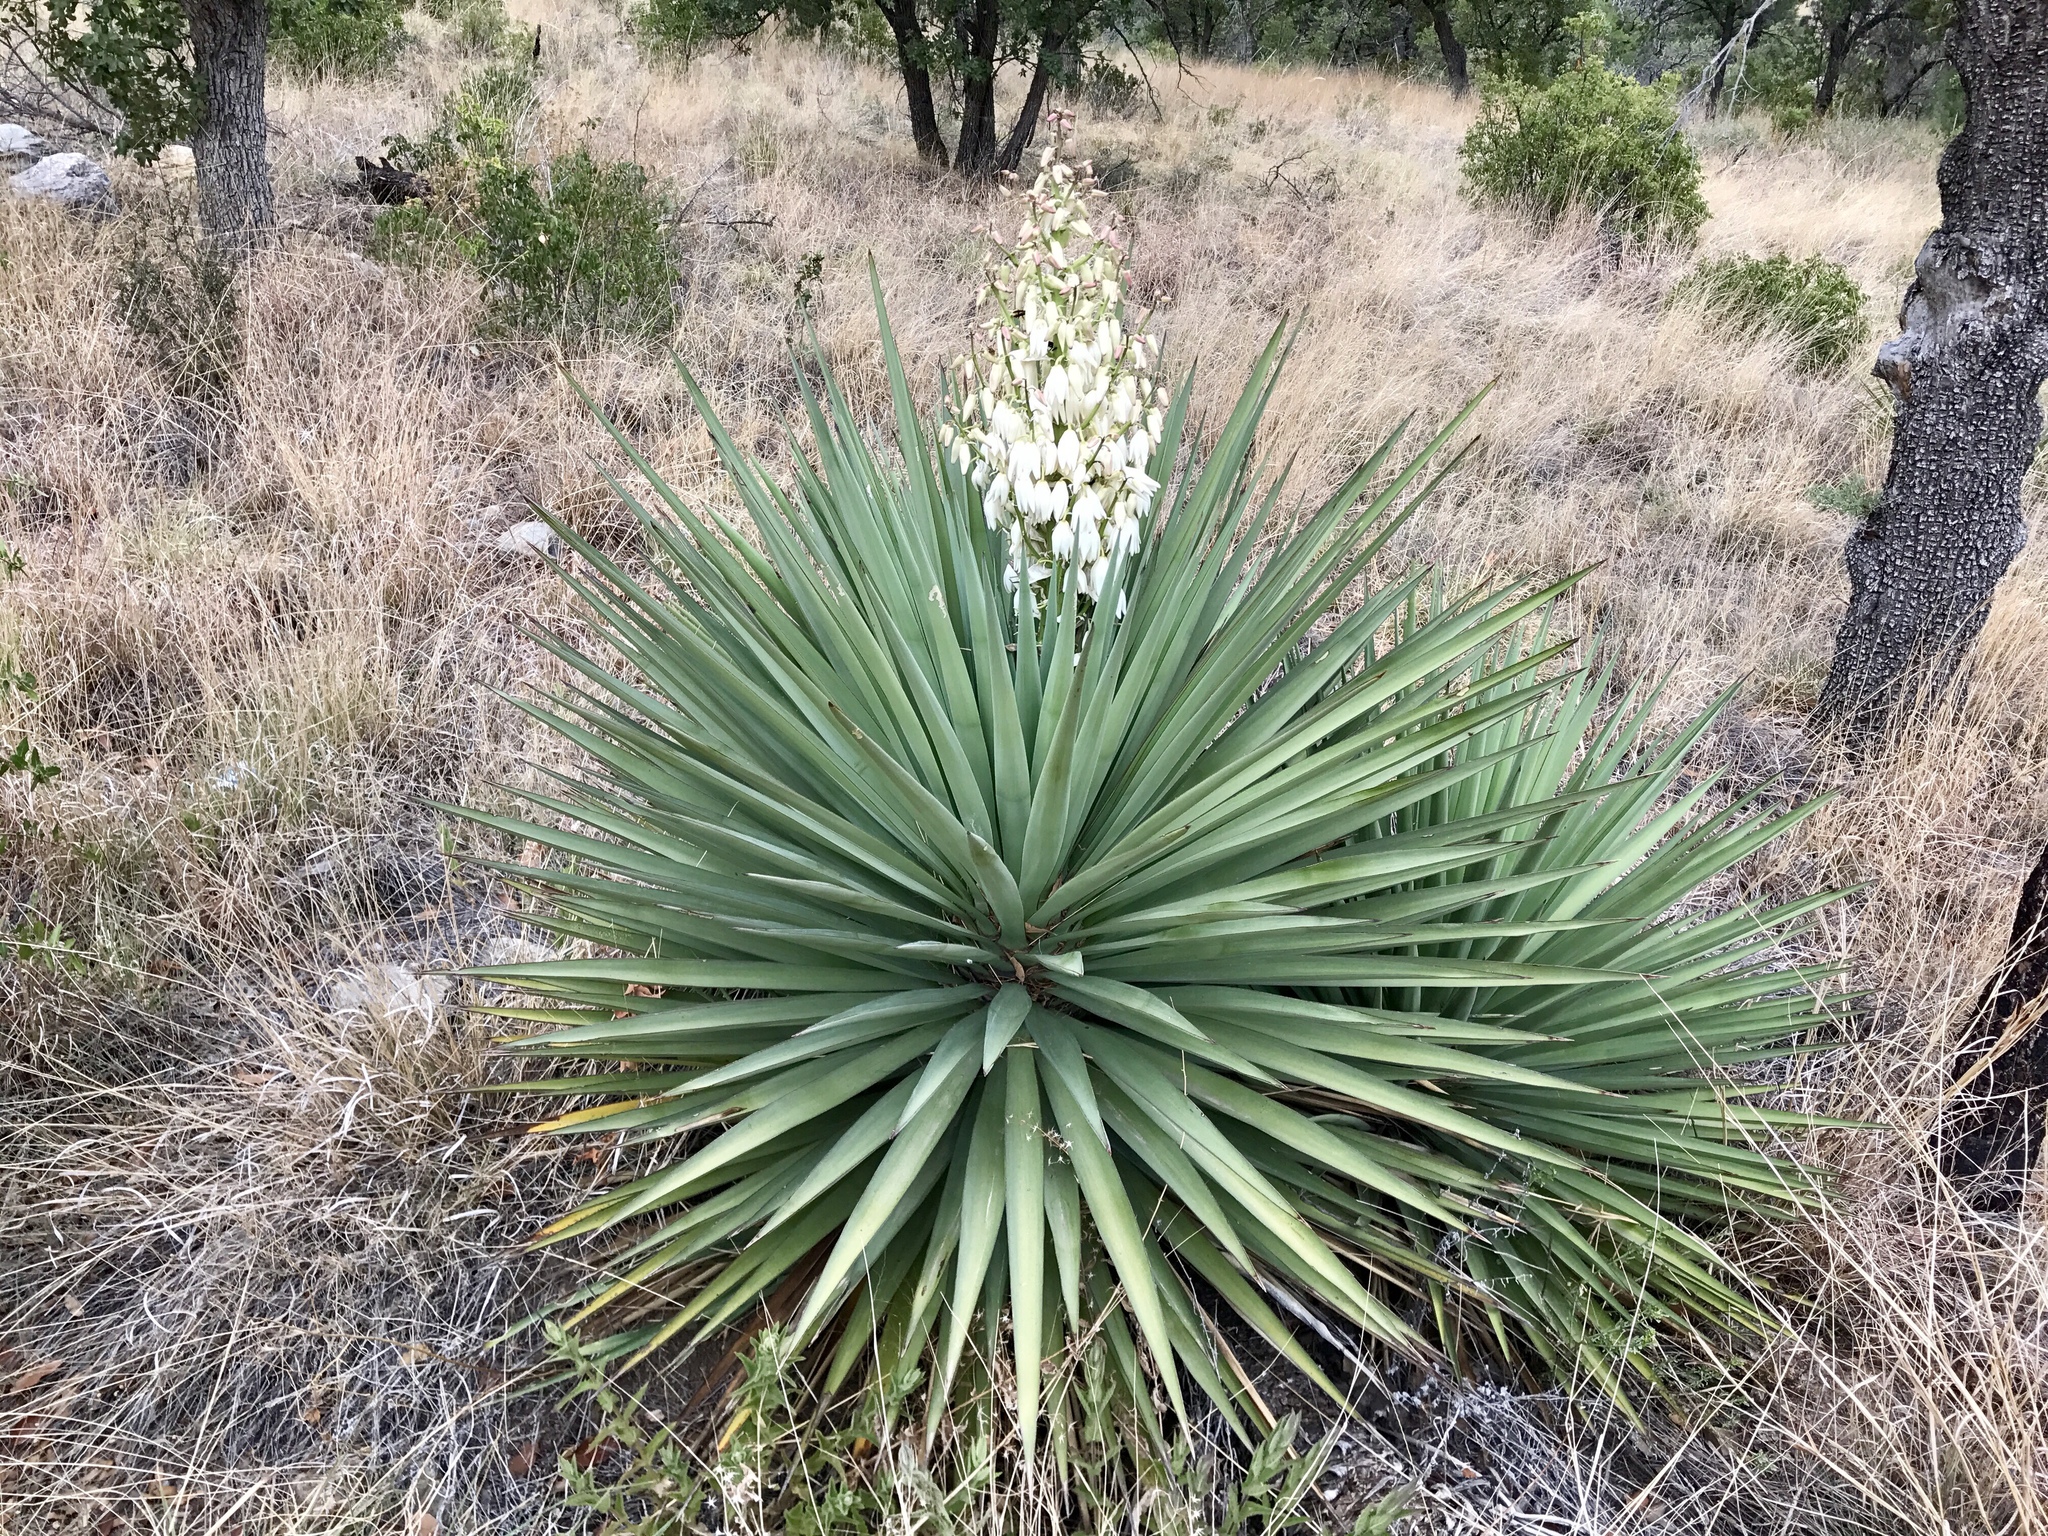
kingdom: Plantae
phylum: Tracheophyta
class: Liliopsida
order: Asparagales
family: Asparagaceae
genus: Yucca
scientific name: Yucca schottii
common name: Hoary yucca
